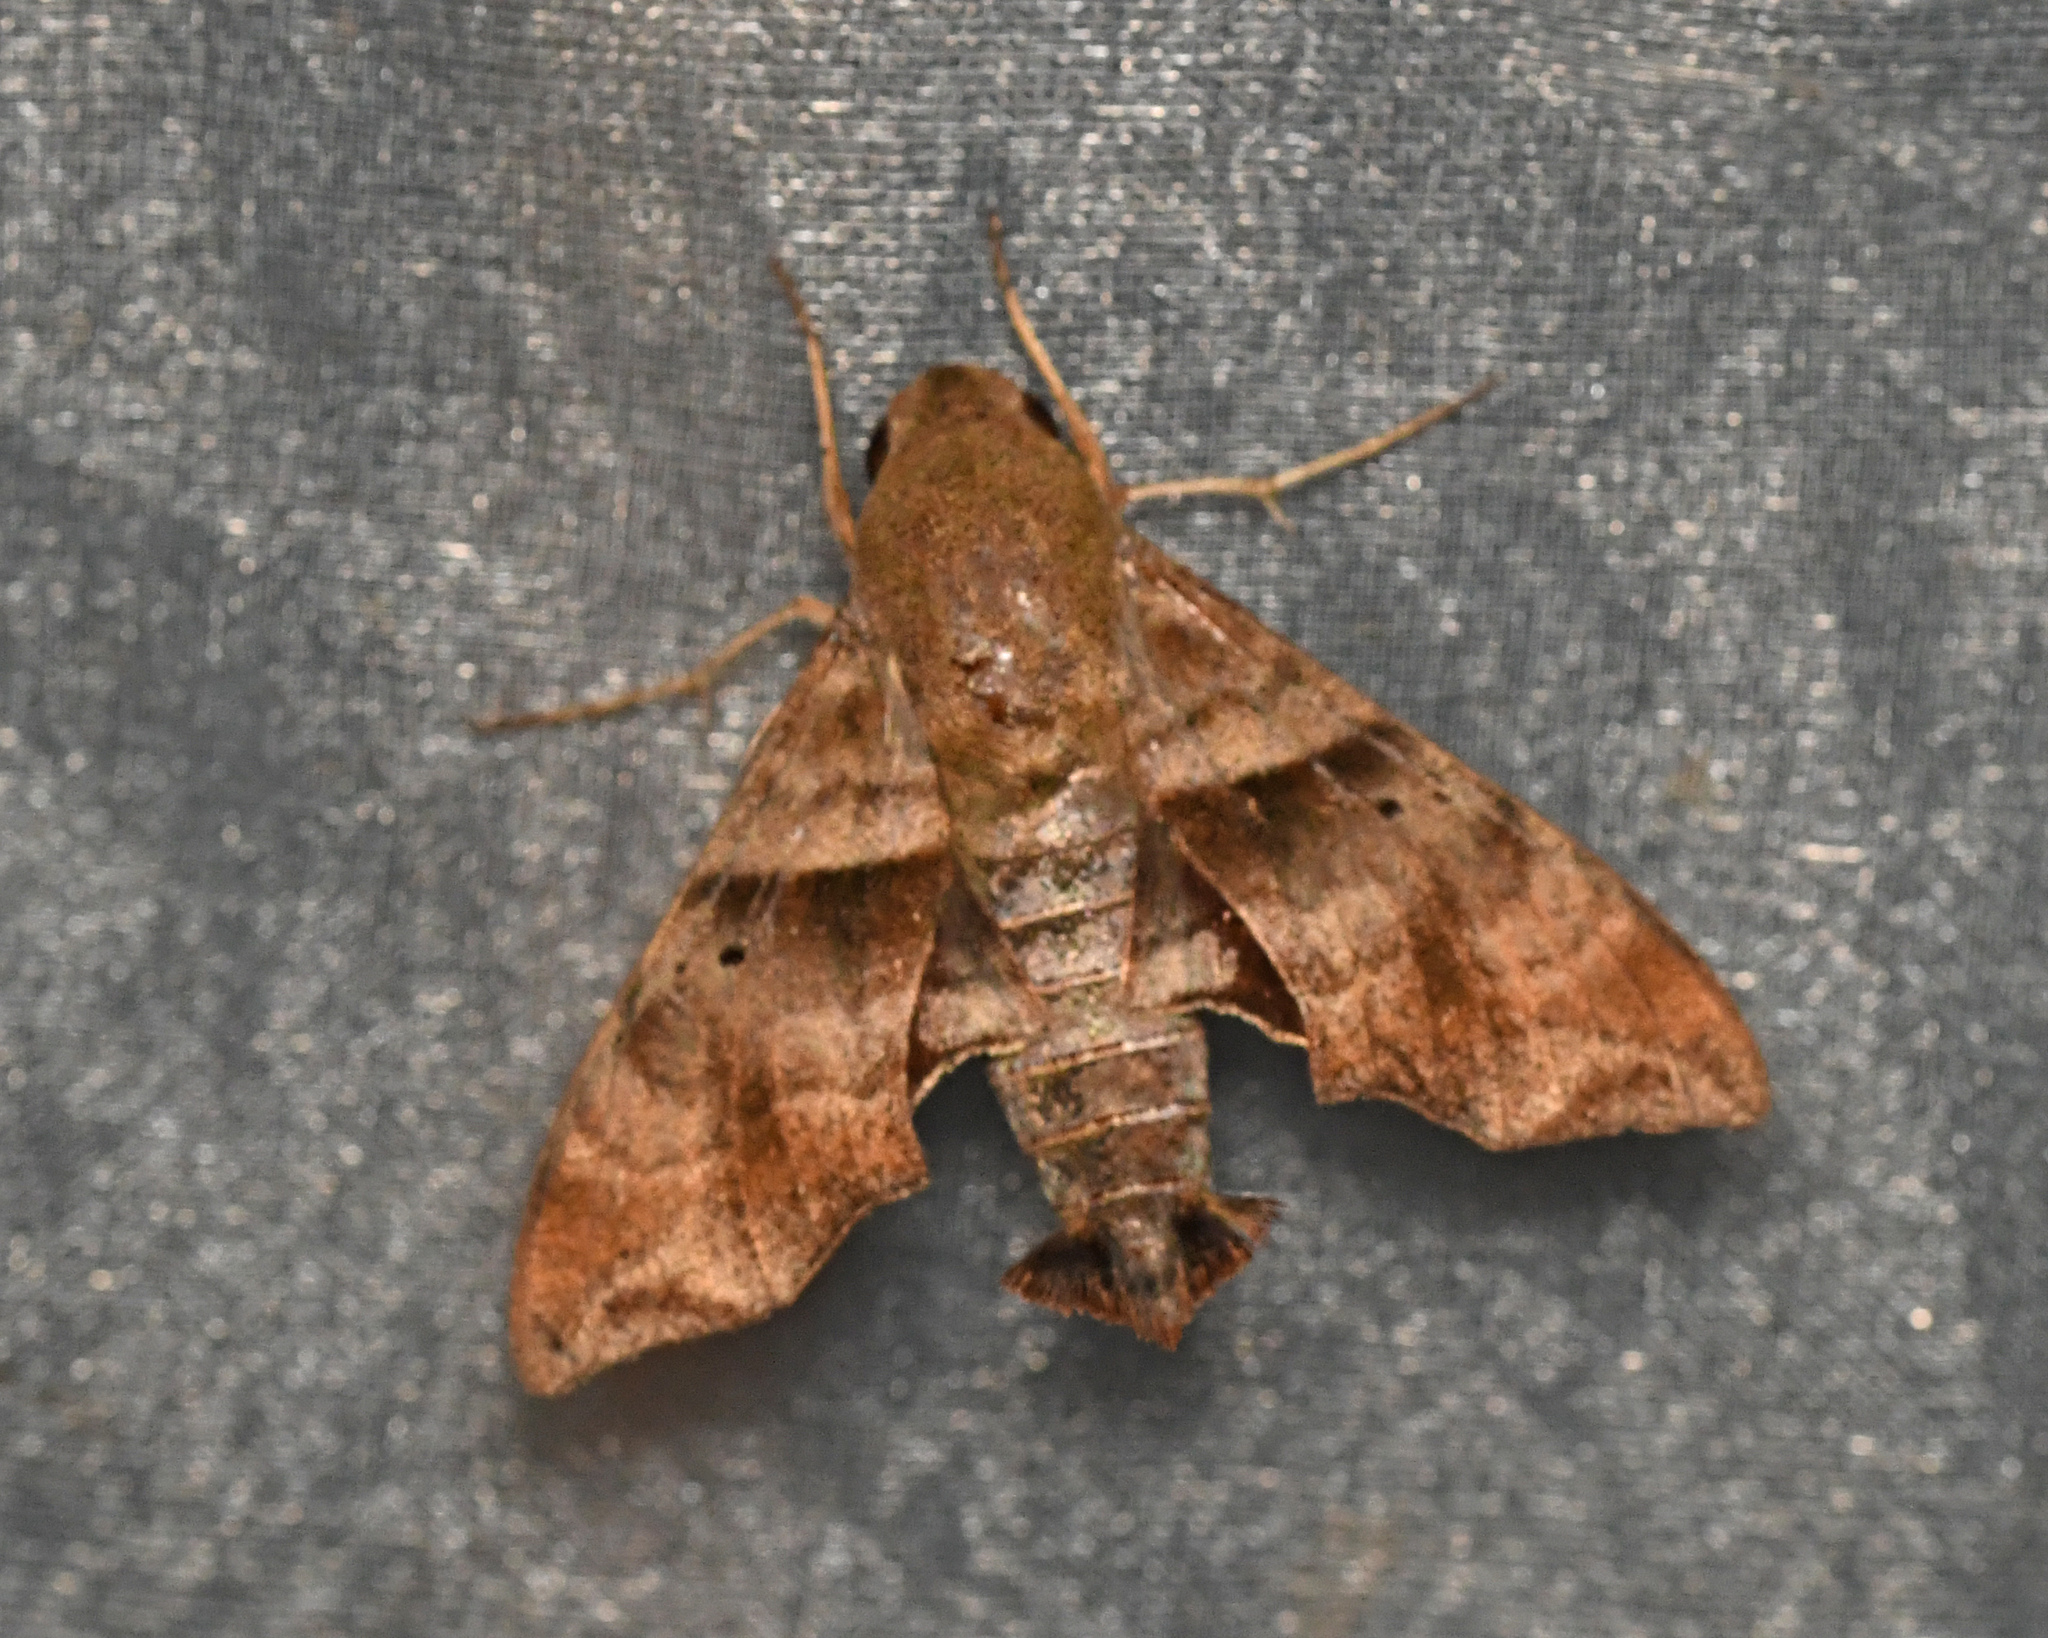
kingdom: Animalia
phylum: Arthropoda
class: Insecta
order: Lepidoptera
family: Sphingidae
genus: Perigonia
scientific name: Perigonia lusca
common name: Half-blind sphinx
